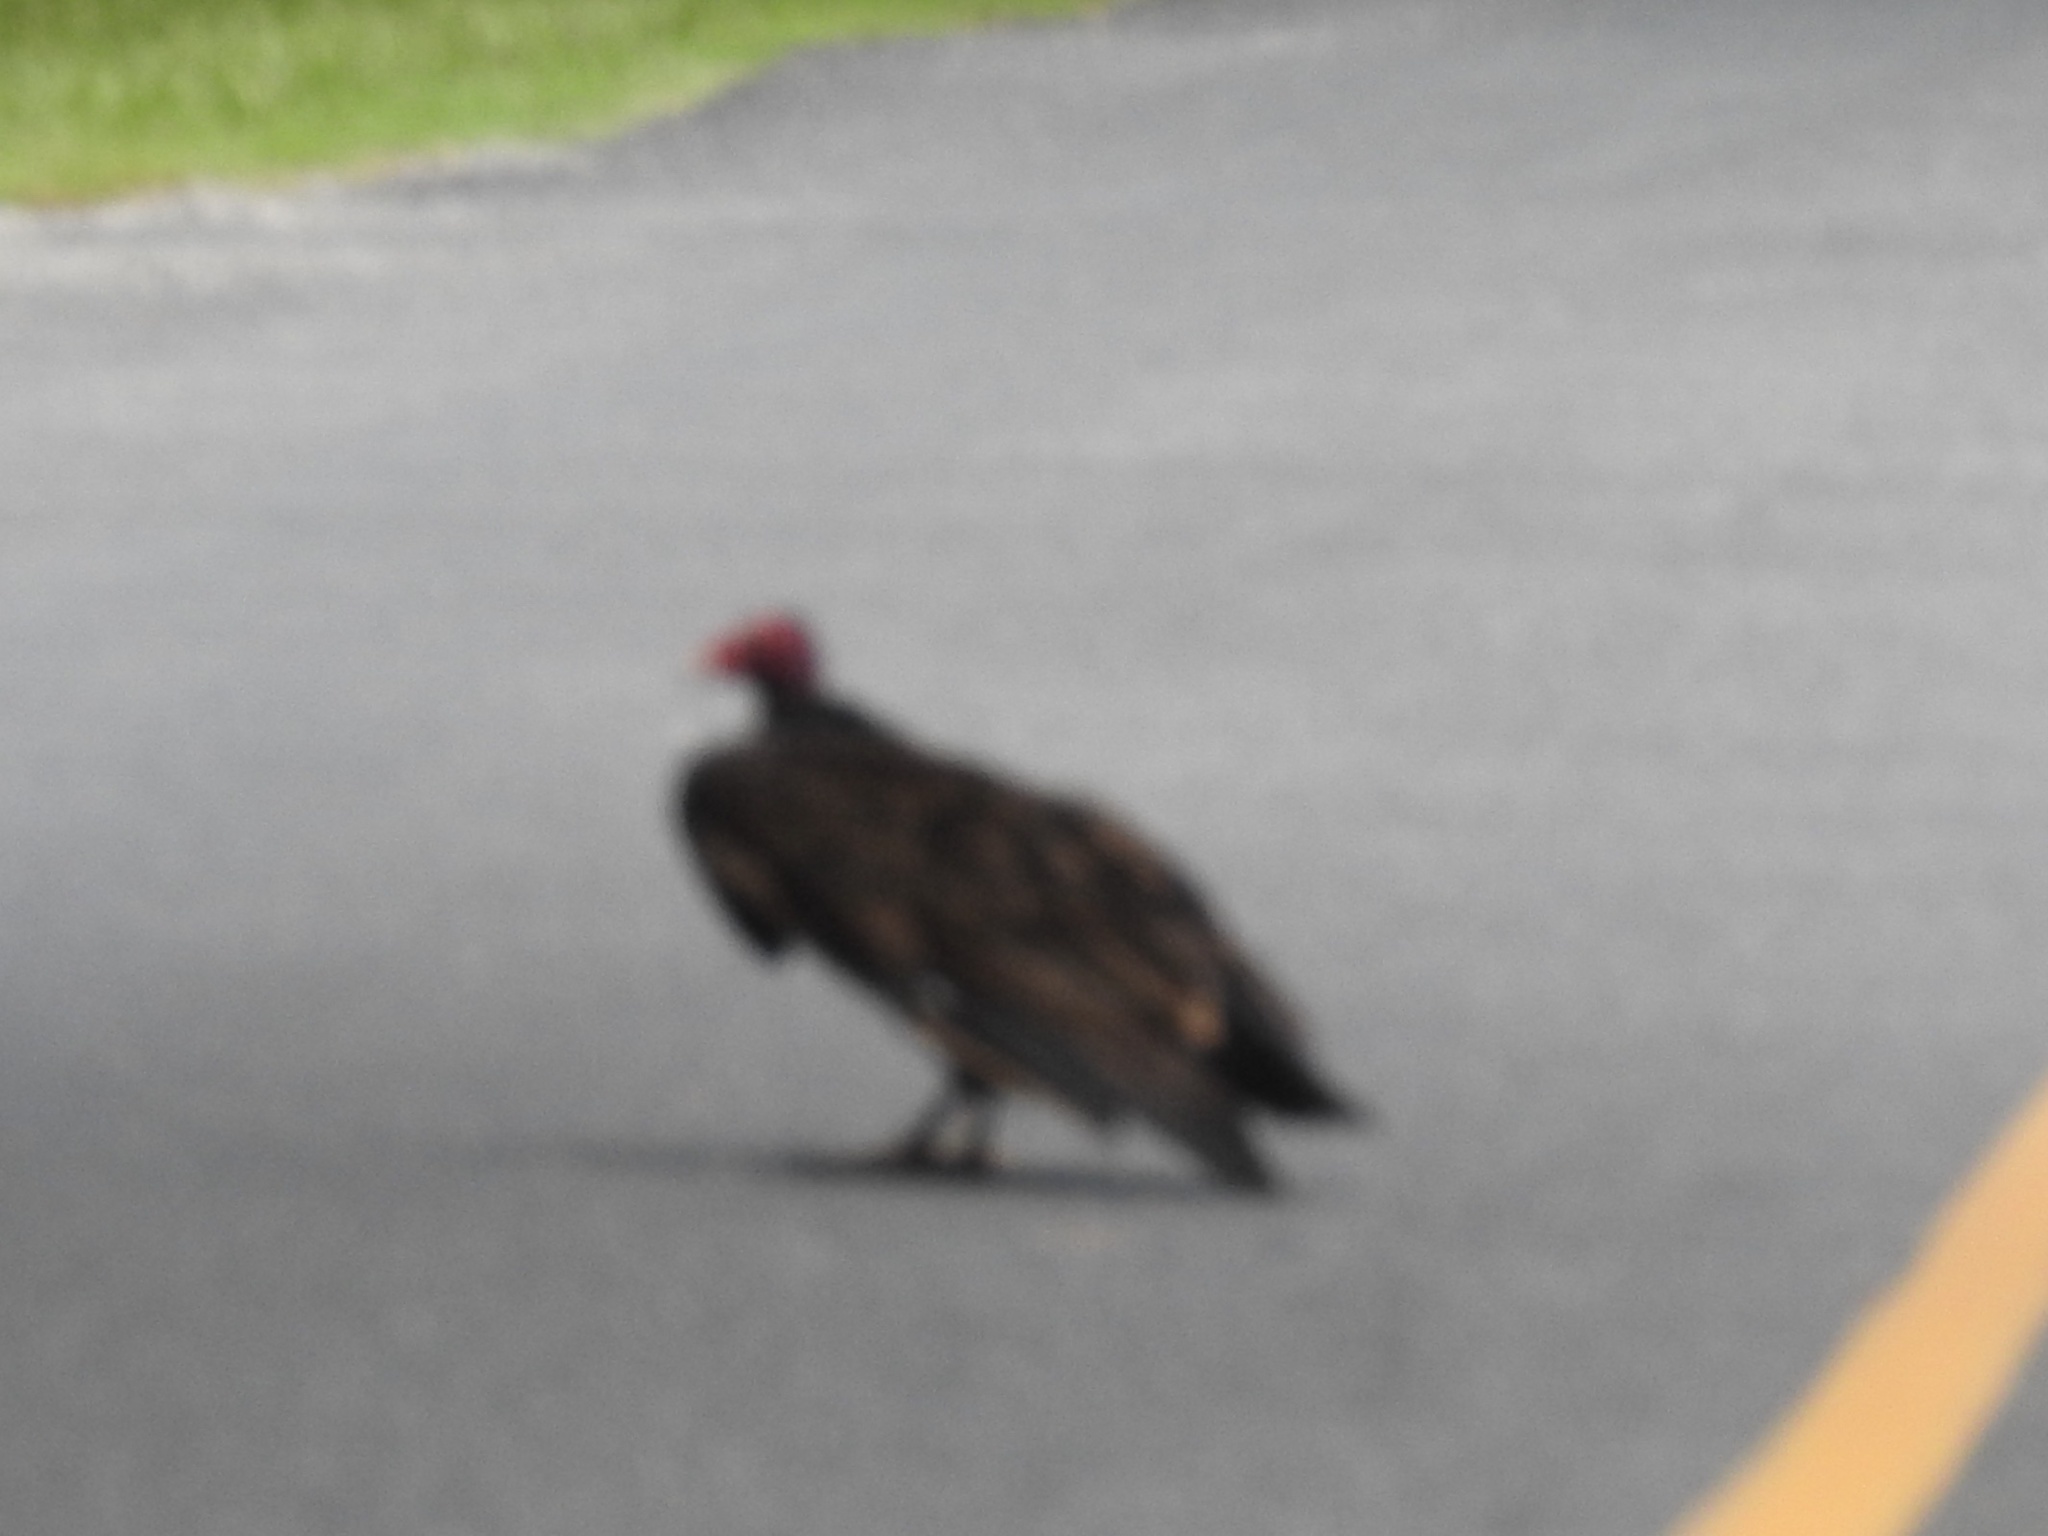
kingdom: Animalia
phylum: Chordata
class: Aves
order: Accipitriformes
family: Cathartidae
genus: Cathartes
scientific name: Cathartes aura
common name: Turkey vulture
